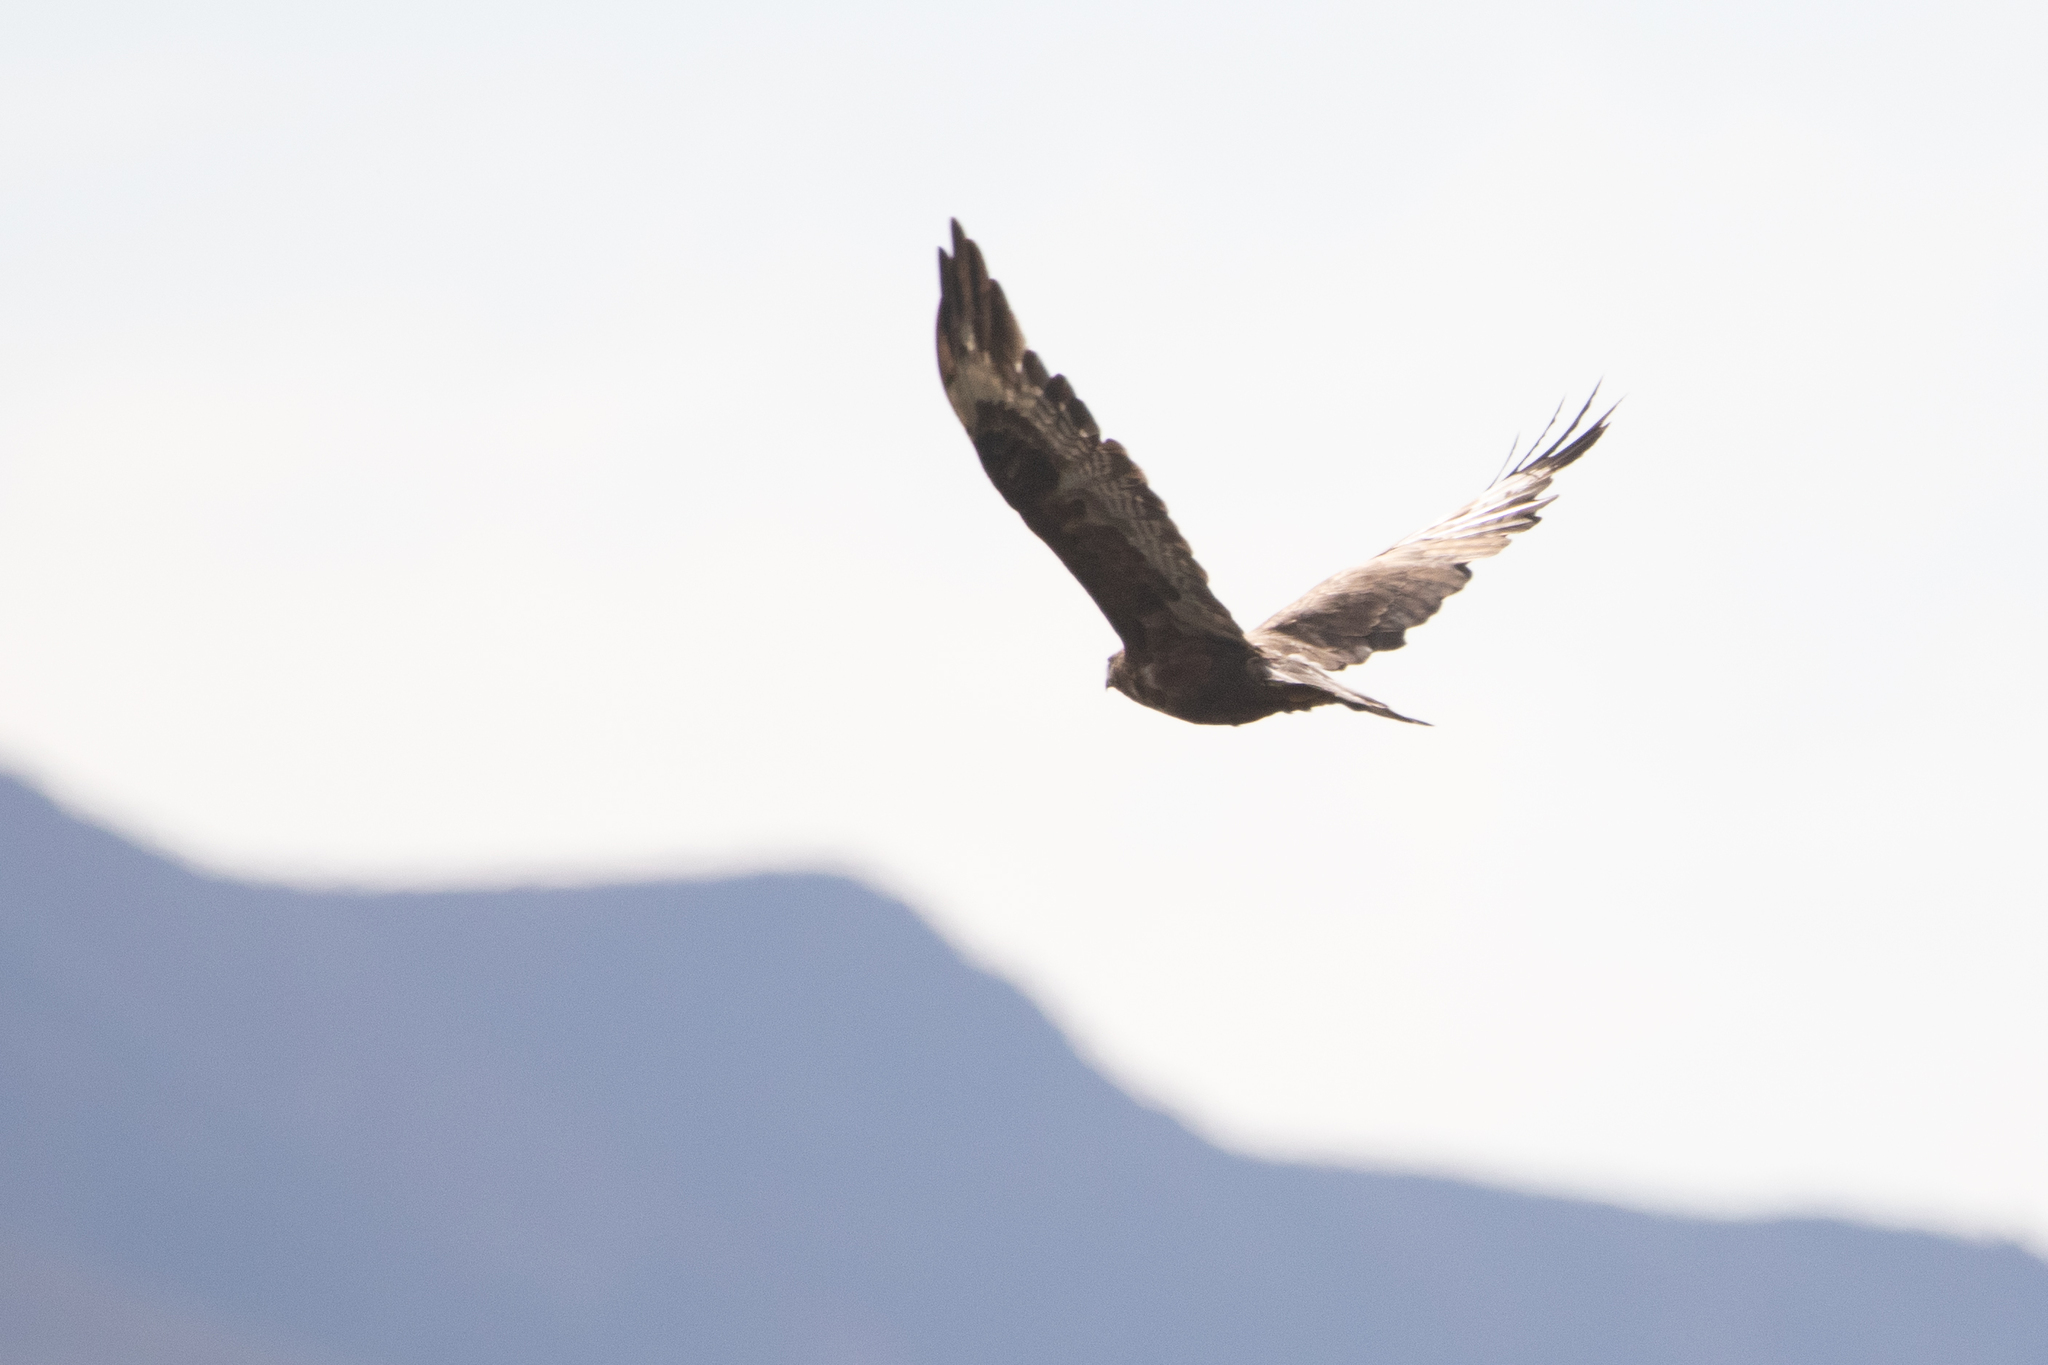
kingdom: Animalia
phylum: Chordata
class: Aves
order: Accipitriformes
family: Accipitridae
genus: Buteo
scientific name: Buteo hemilasius
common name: Upland buzzard
